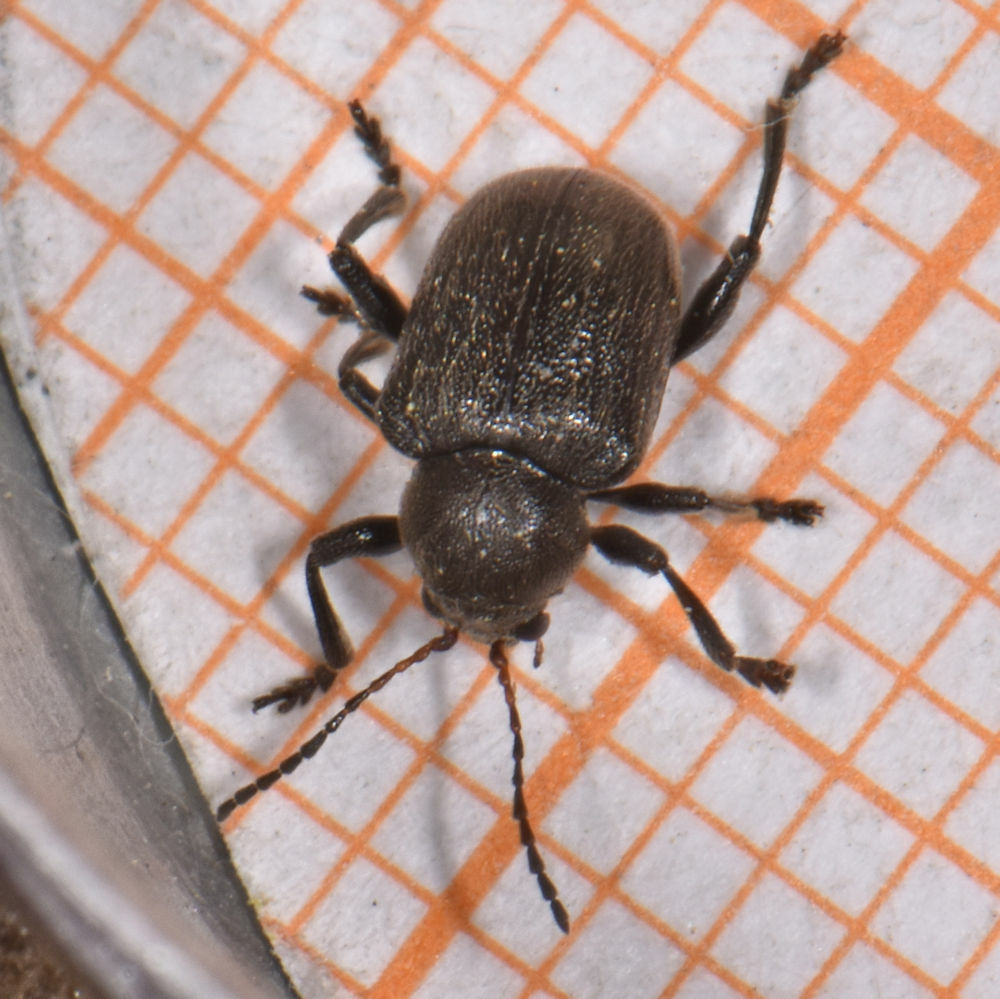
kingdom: Animalia
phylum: Arthropoda
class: Insecta
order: Coleoptera
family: Chrysomelidae
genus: Bromius
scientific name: Bromius obscurus
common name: Western grape rootworm
